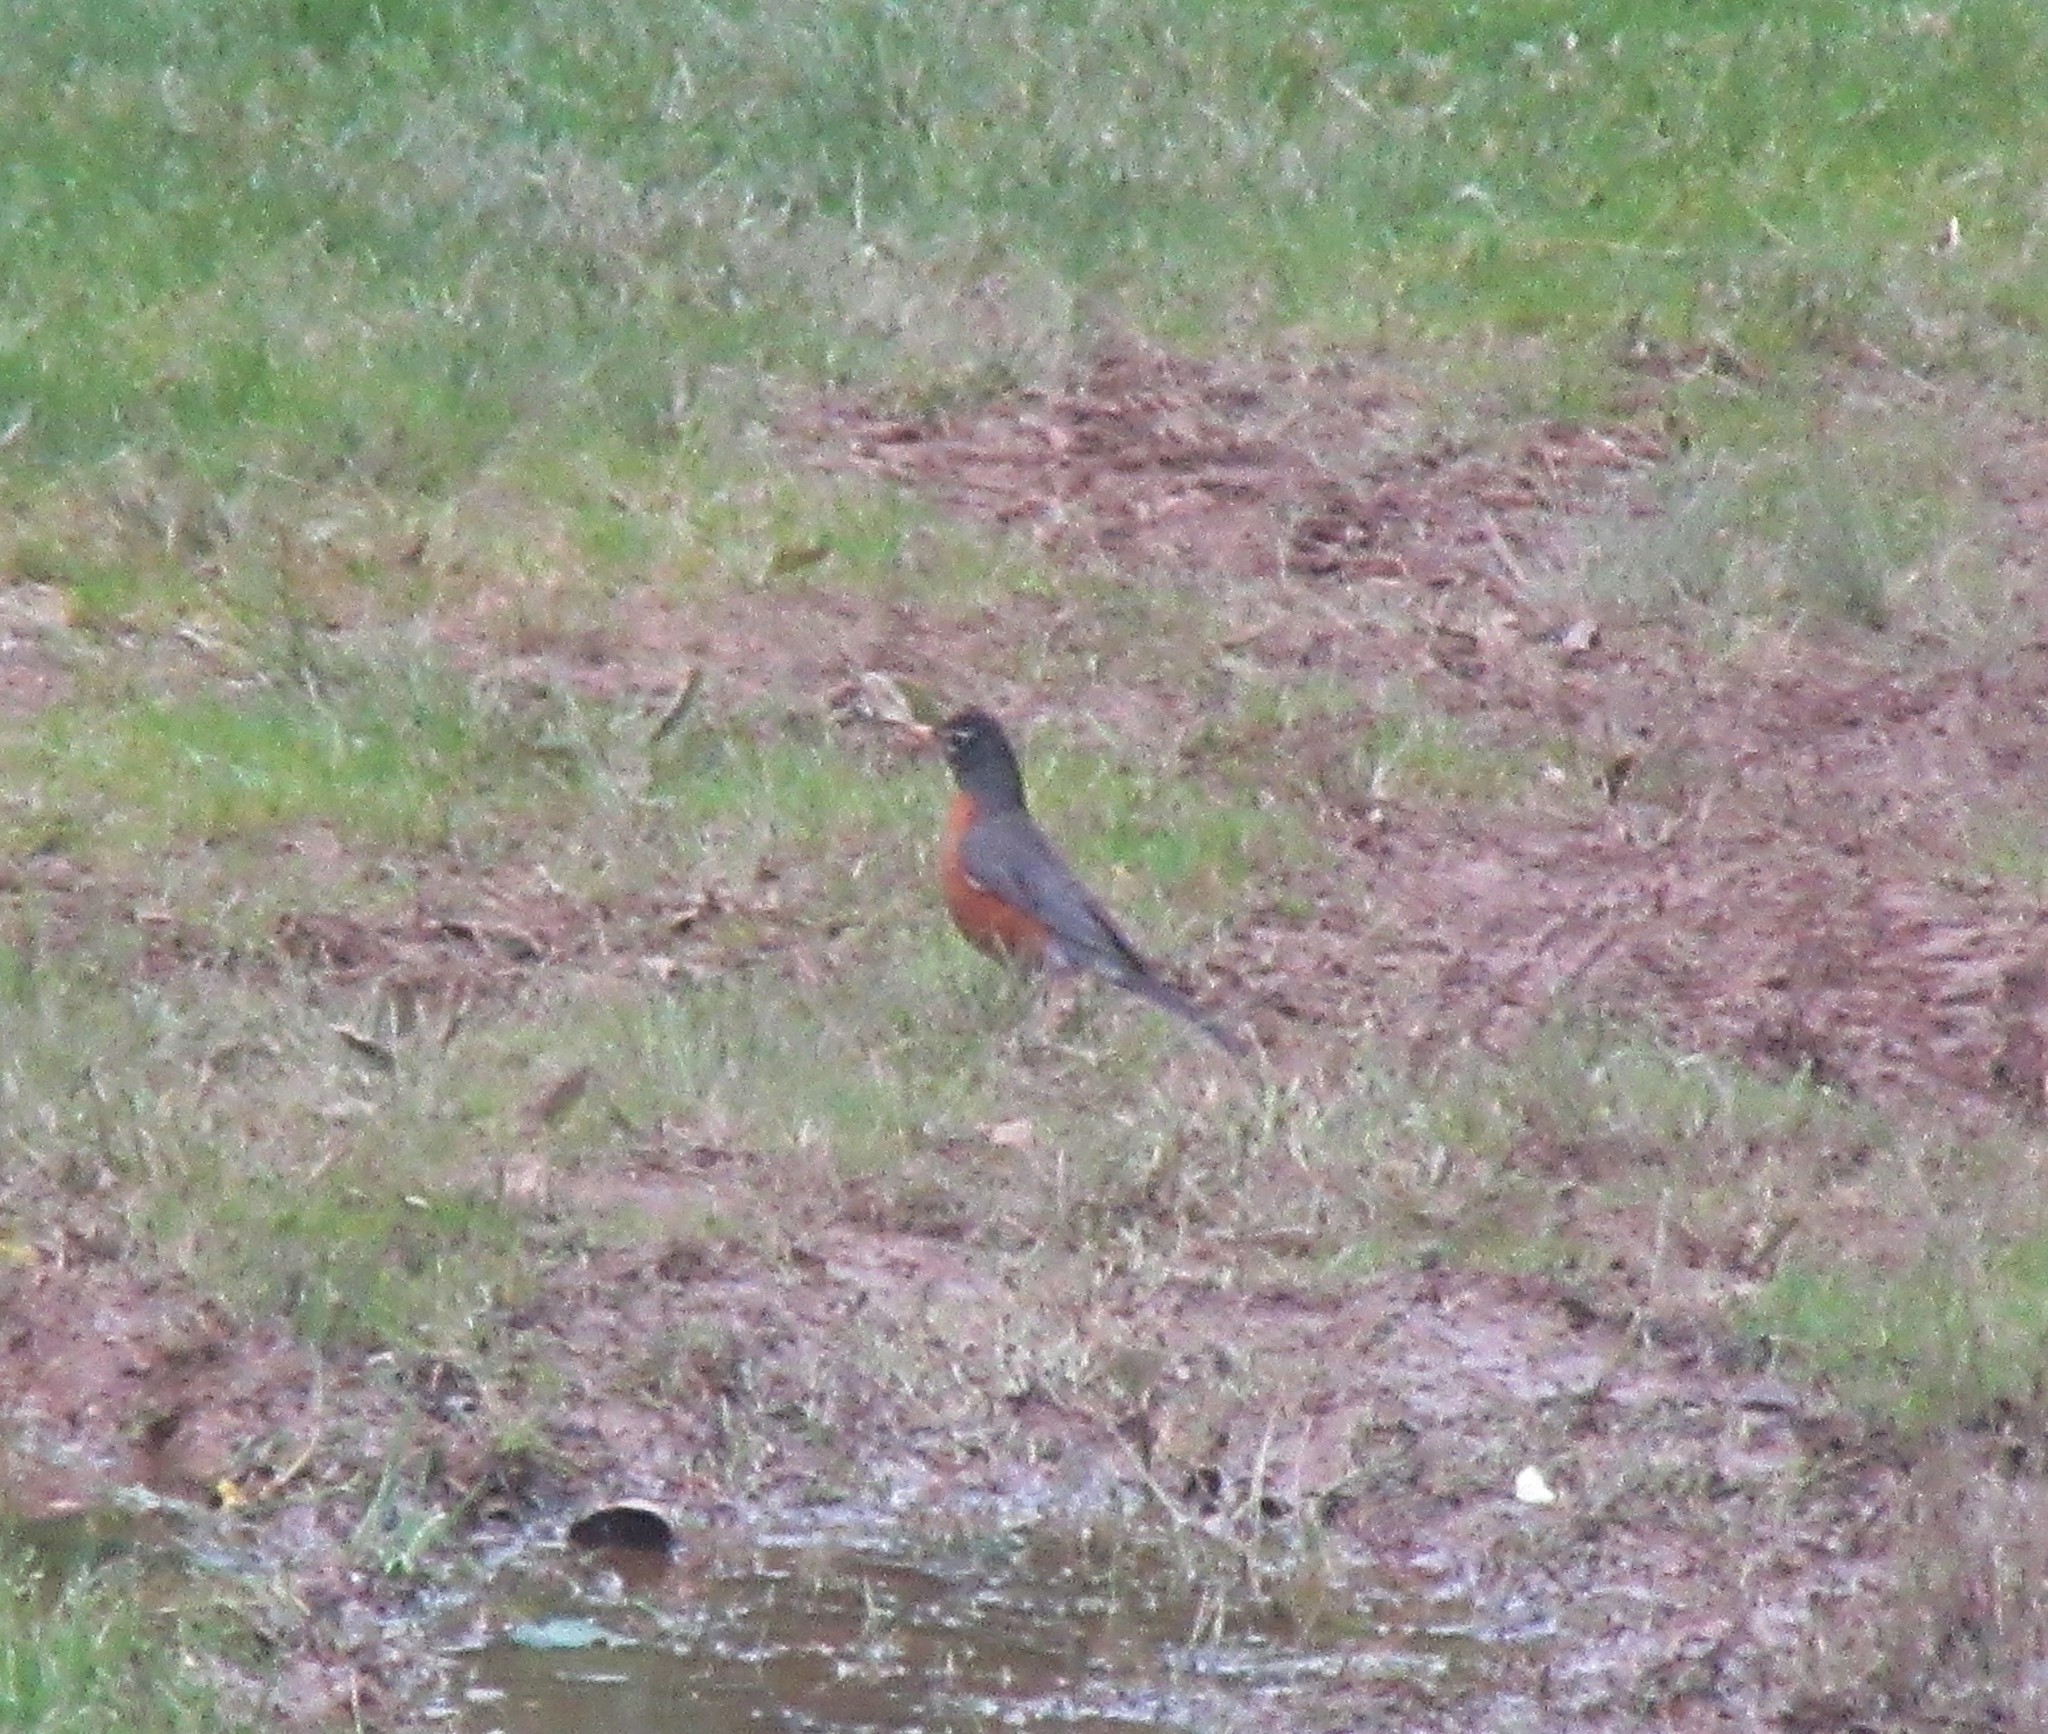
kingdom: Animalia
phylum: Chordata
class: Aves
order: Passeriformes
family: Turdidae
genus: Turdus
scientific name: Turdus migratorius
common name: American robin
